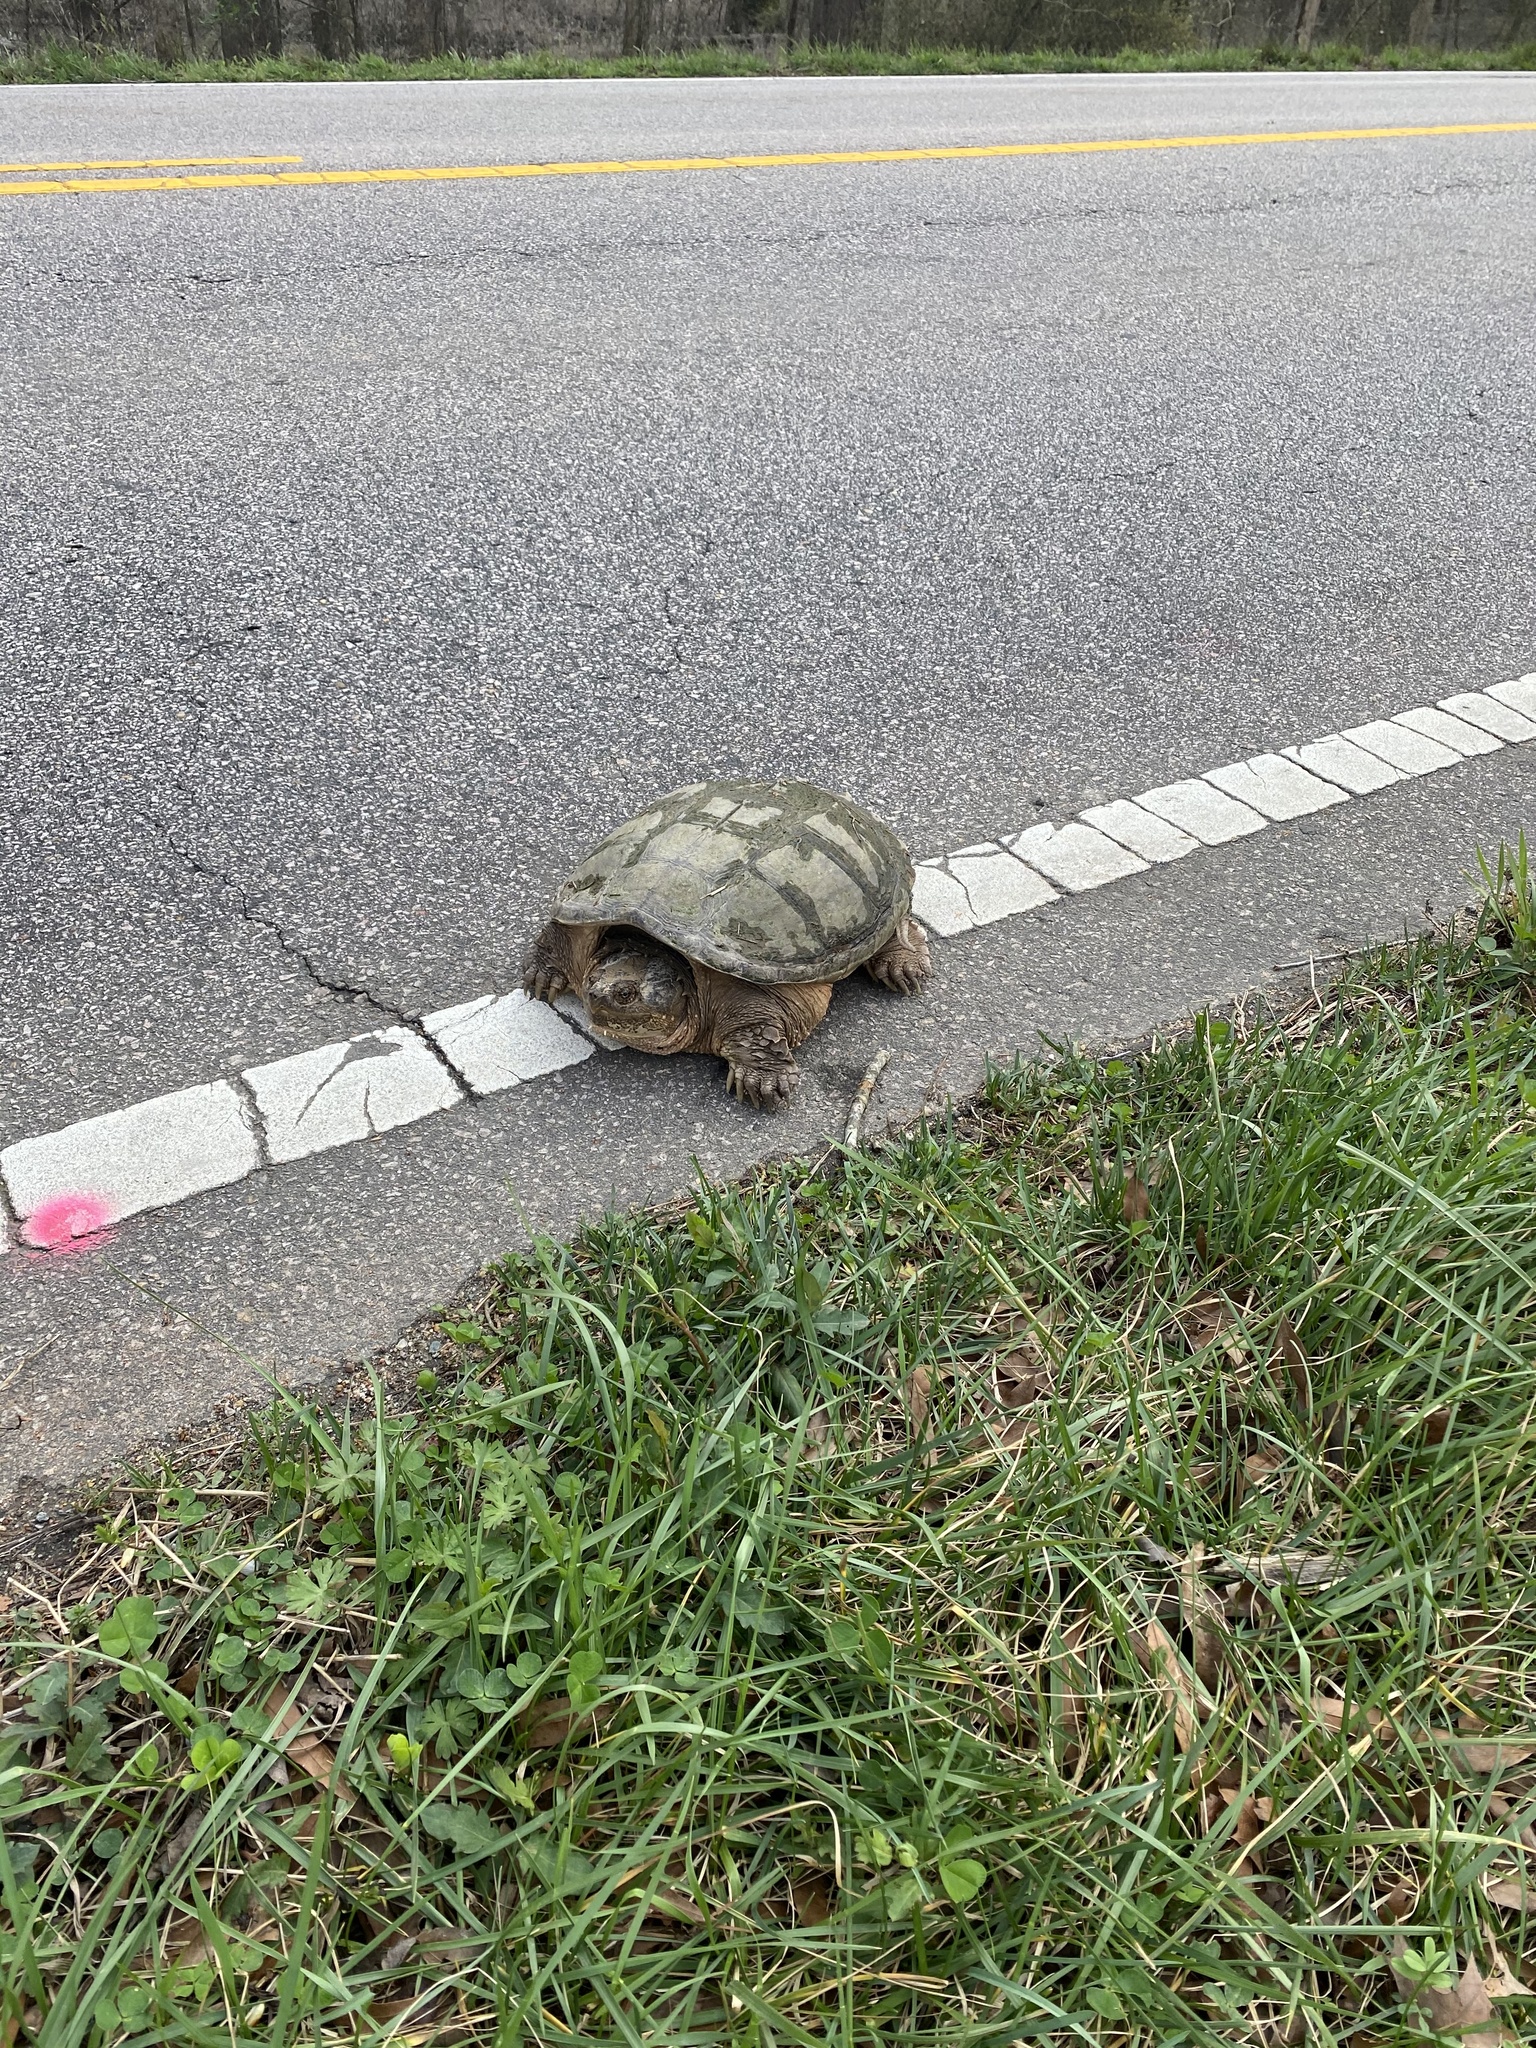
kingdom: Animalia
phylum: Chordata
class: Testudines
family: Chelydridae
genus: Chelydra
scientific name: Chelydra serpentina
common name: Common snapping turtle
